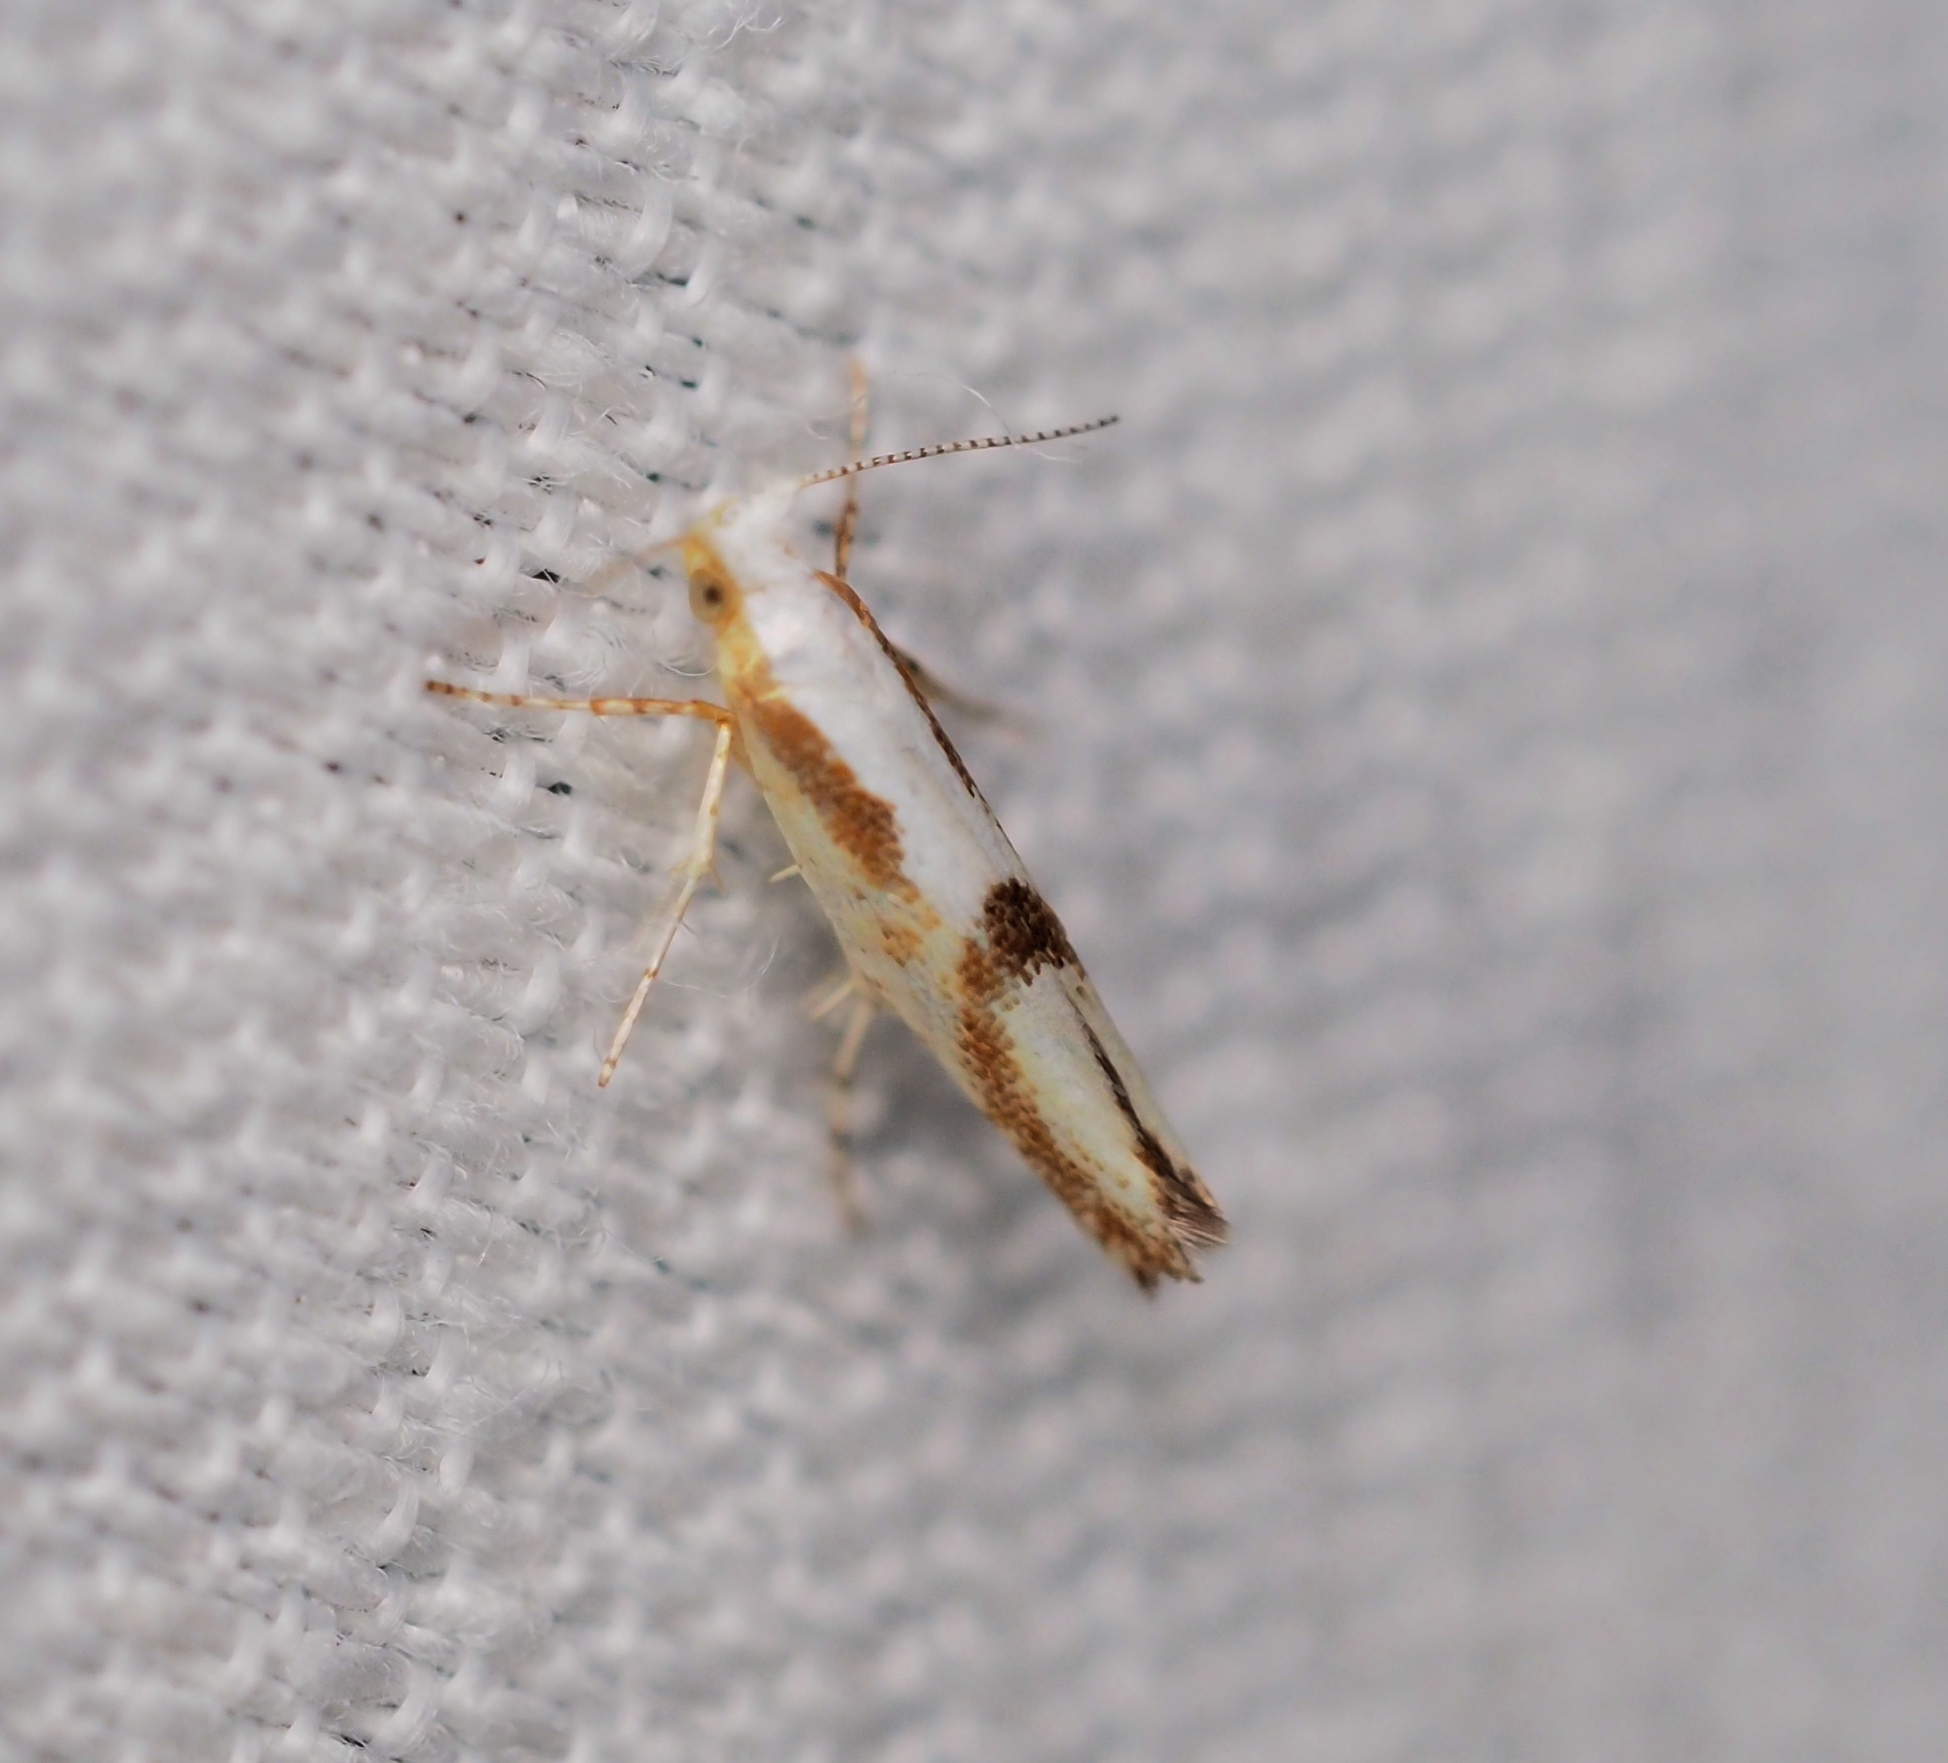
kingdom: Animalia
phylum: Arthropoda
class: Insecta
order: Lepidoptera
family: Argyresthiidae
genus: Argyresthia
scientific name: Argyresthia pruniella
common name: Cherry fruit moth
